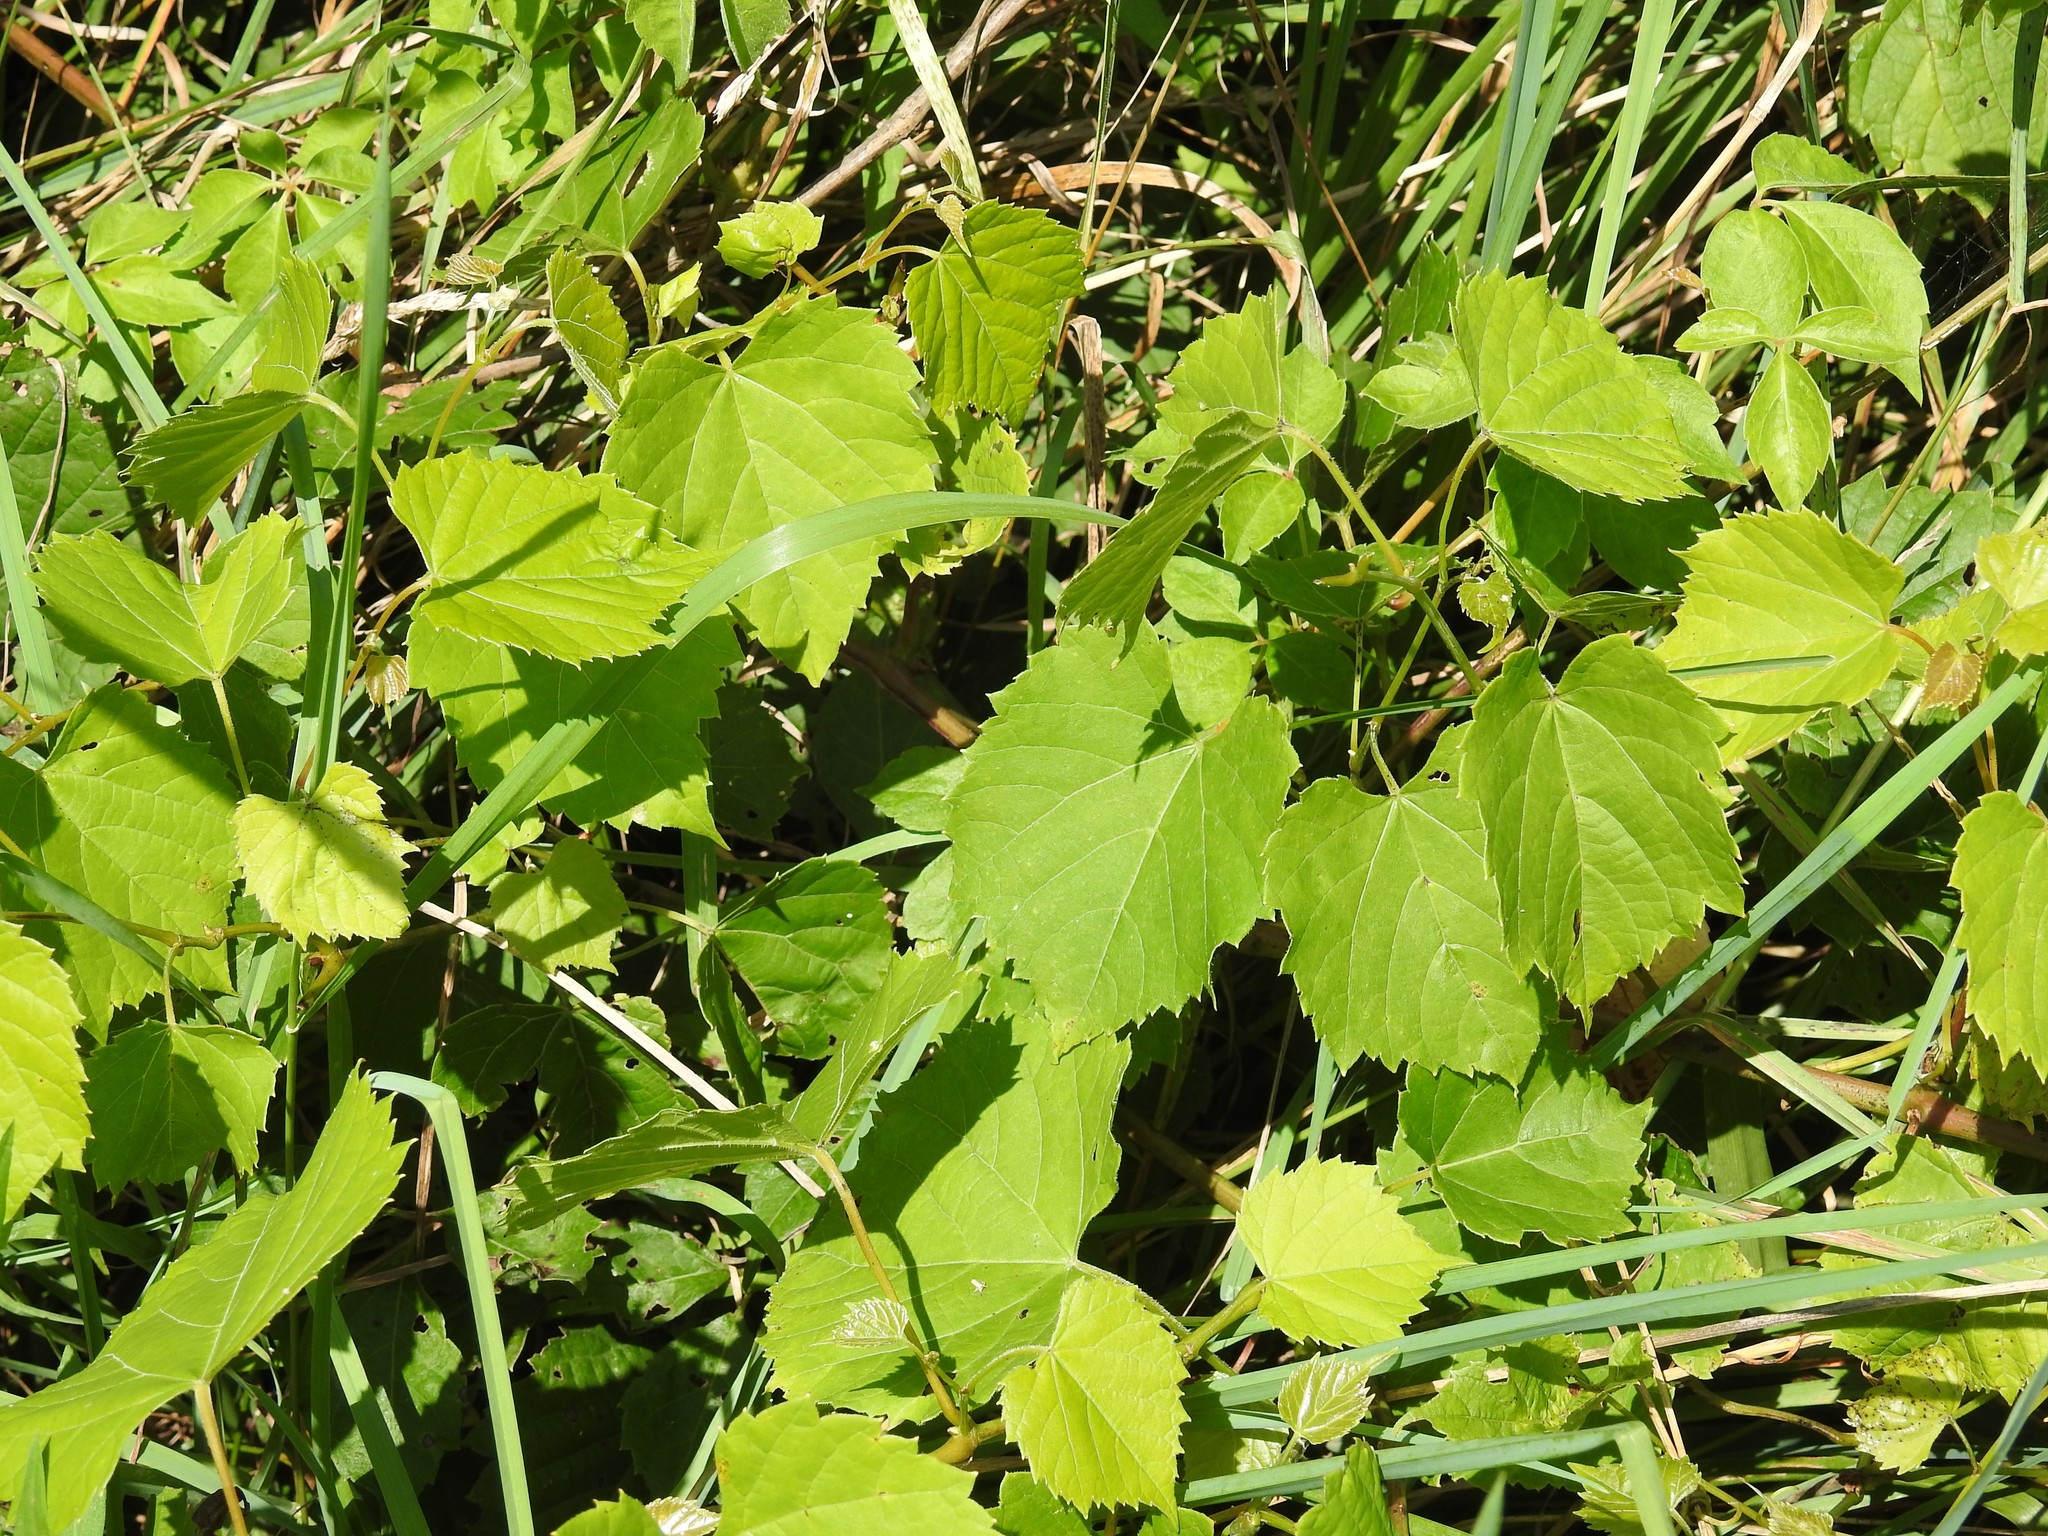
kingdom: Plantae
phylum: Tracheophyta
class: Magnoliopsida
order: Vitales
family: Vitaceae
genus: Vitis
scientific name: Vitis riparia
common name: Frost grape
